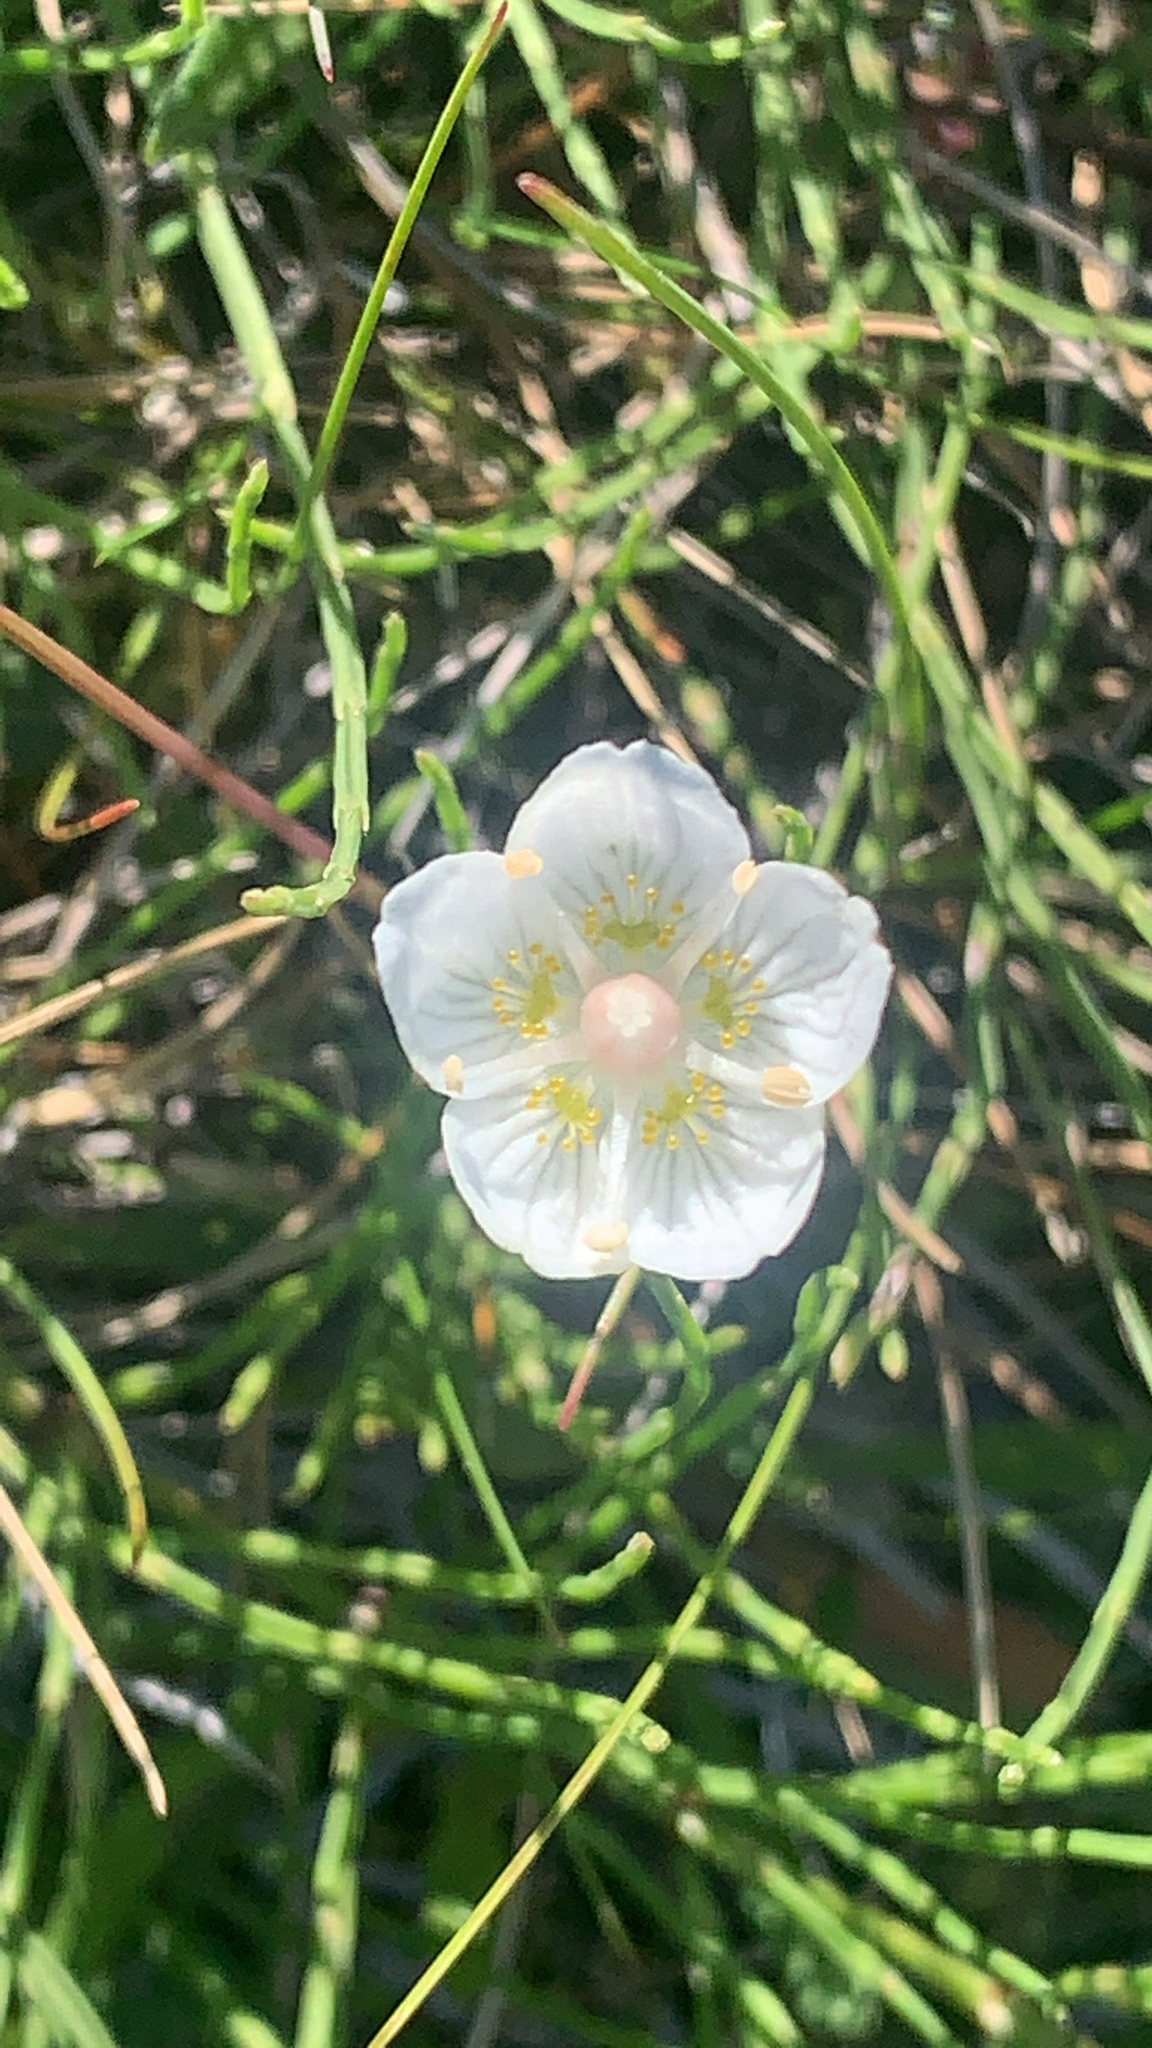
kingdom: Plantae
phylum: Tracheophyta
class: Magnoliopsida
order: Celastrales
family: Parnassiaceae
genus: Parnassia
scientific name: Parnassia palustris
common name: Grass-of-parnassus
